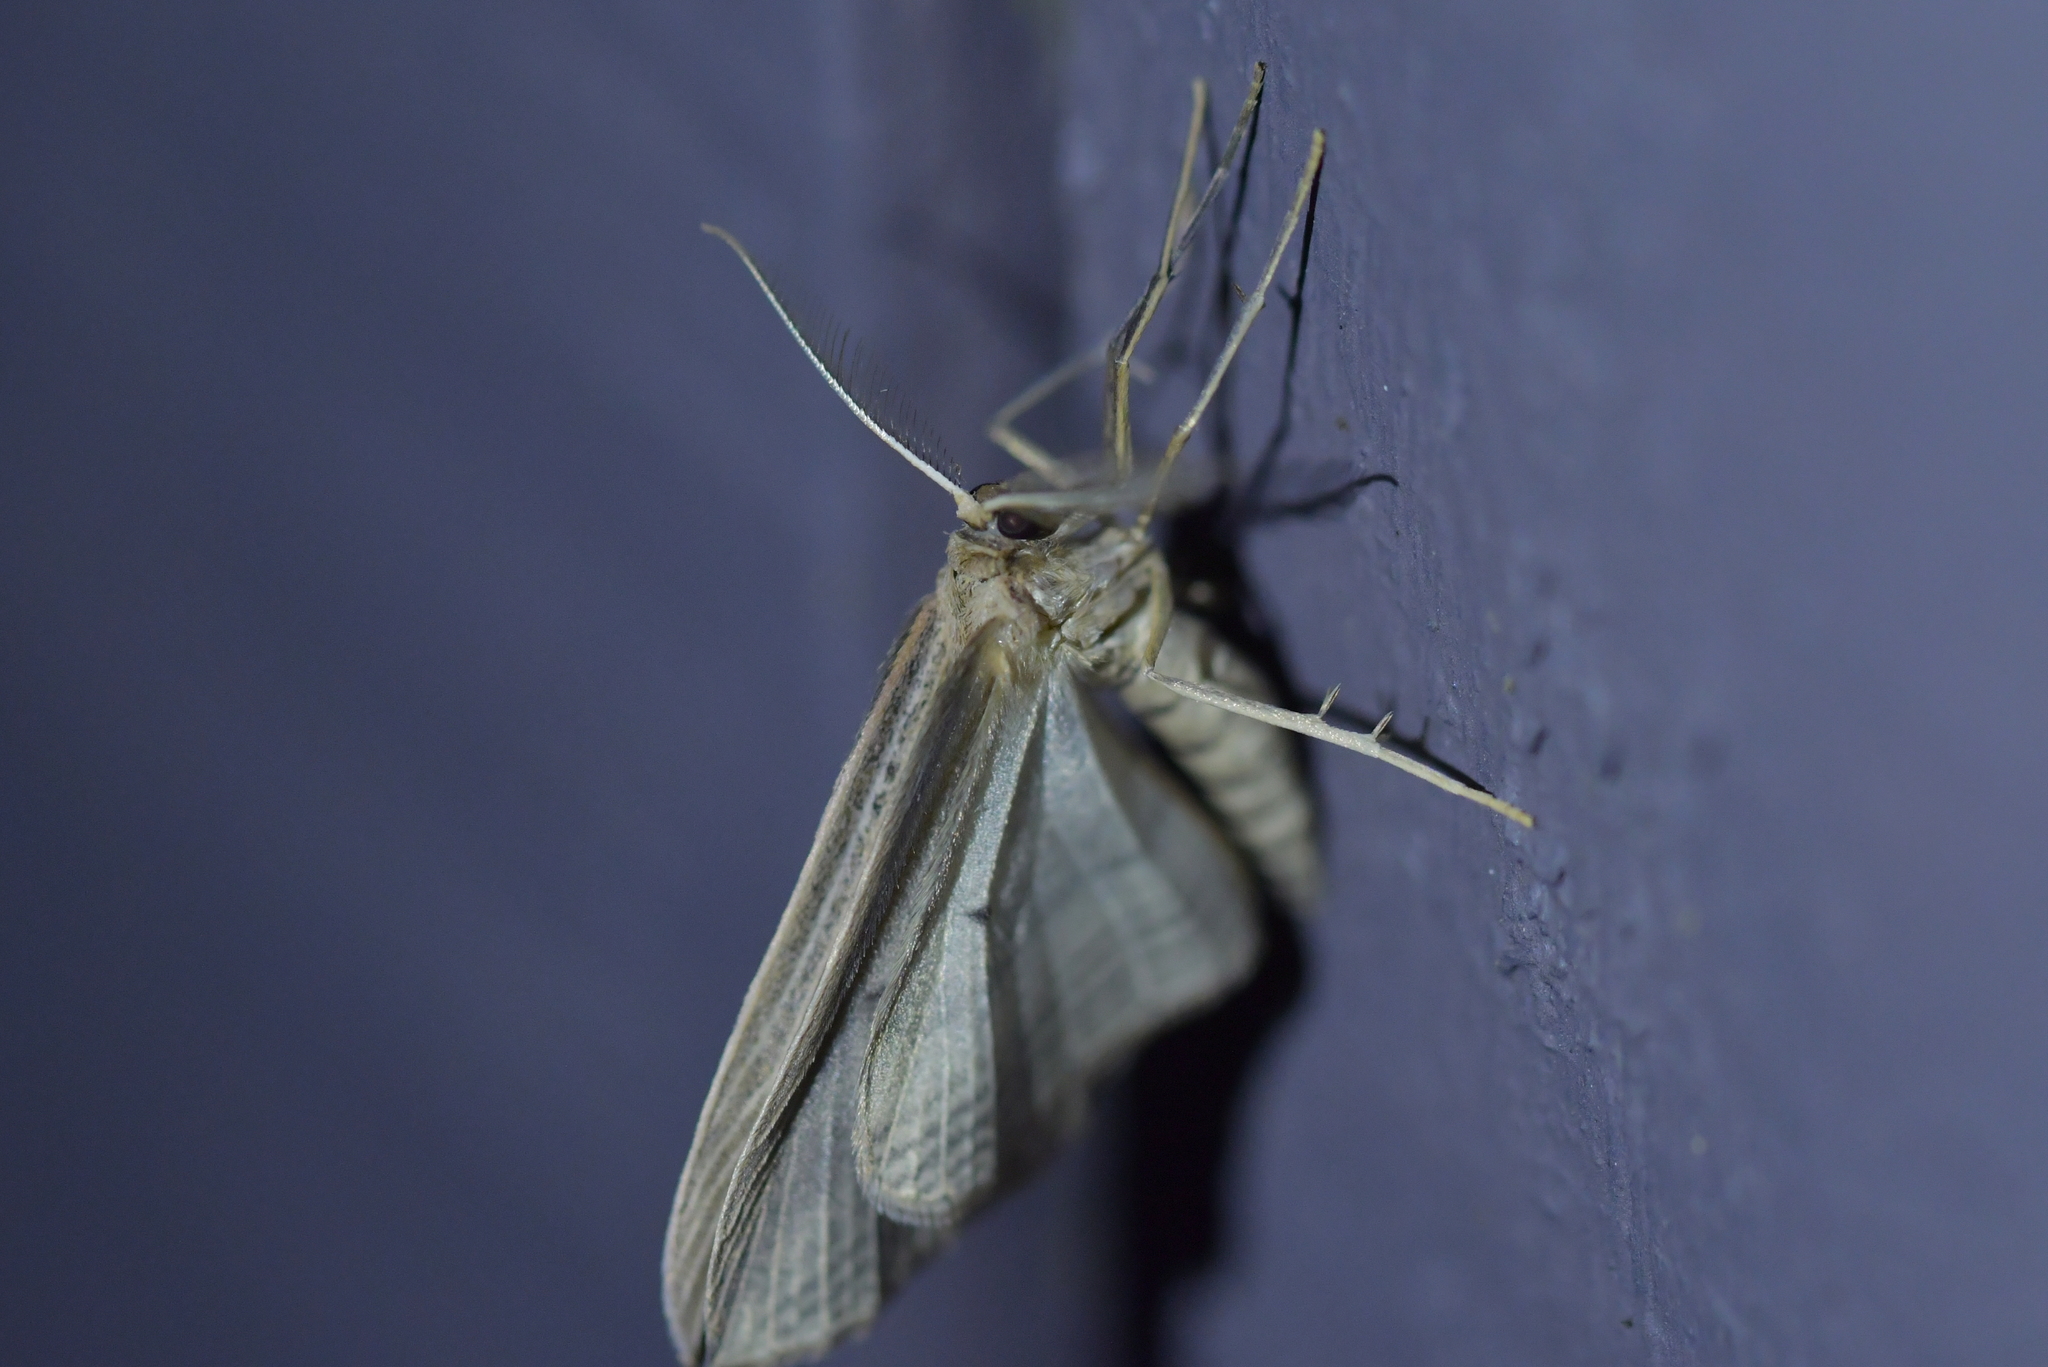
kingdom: Animalia
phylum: Arthropoda
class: Insecta
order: Lepidoptera
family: Geometridae
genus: Epiphryne
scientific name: Epiphryne verriculata
